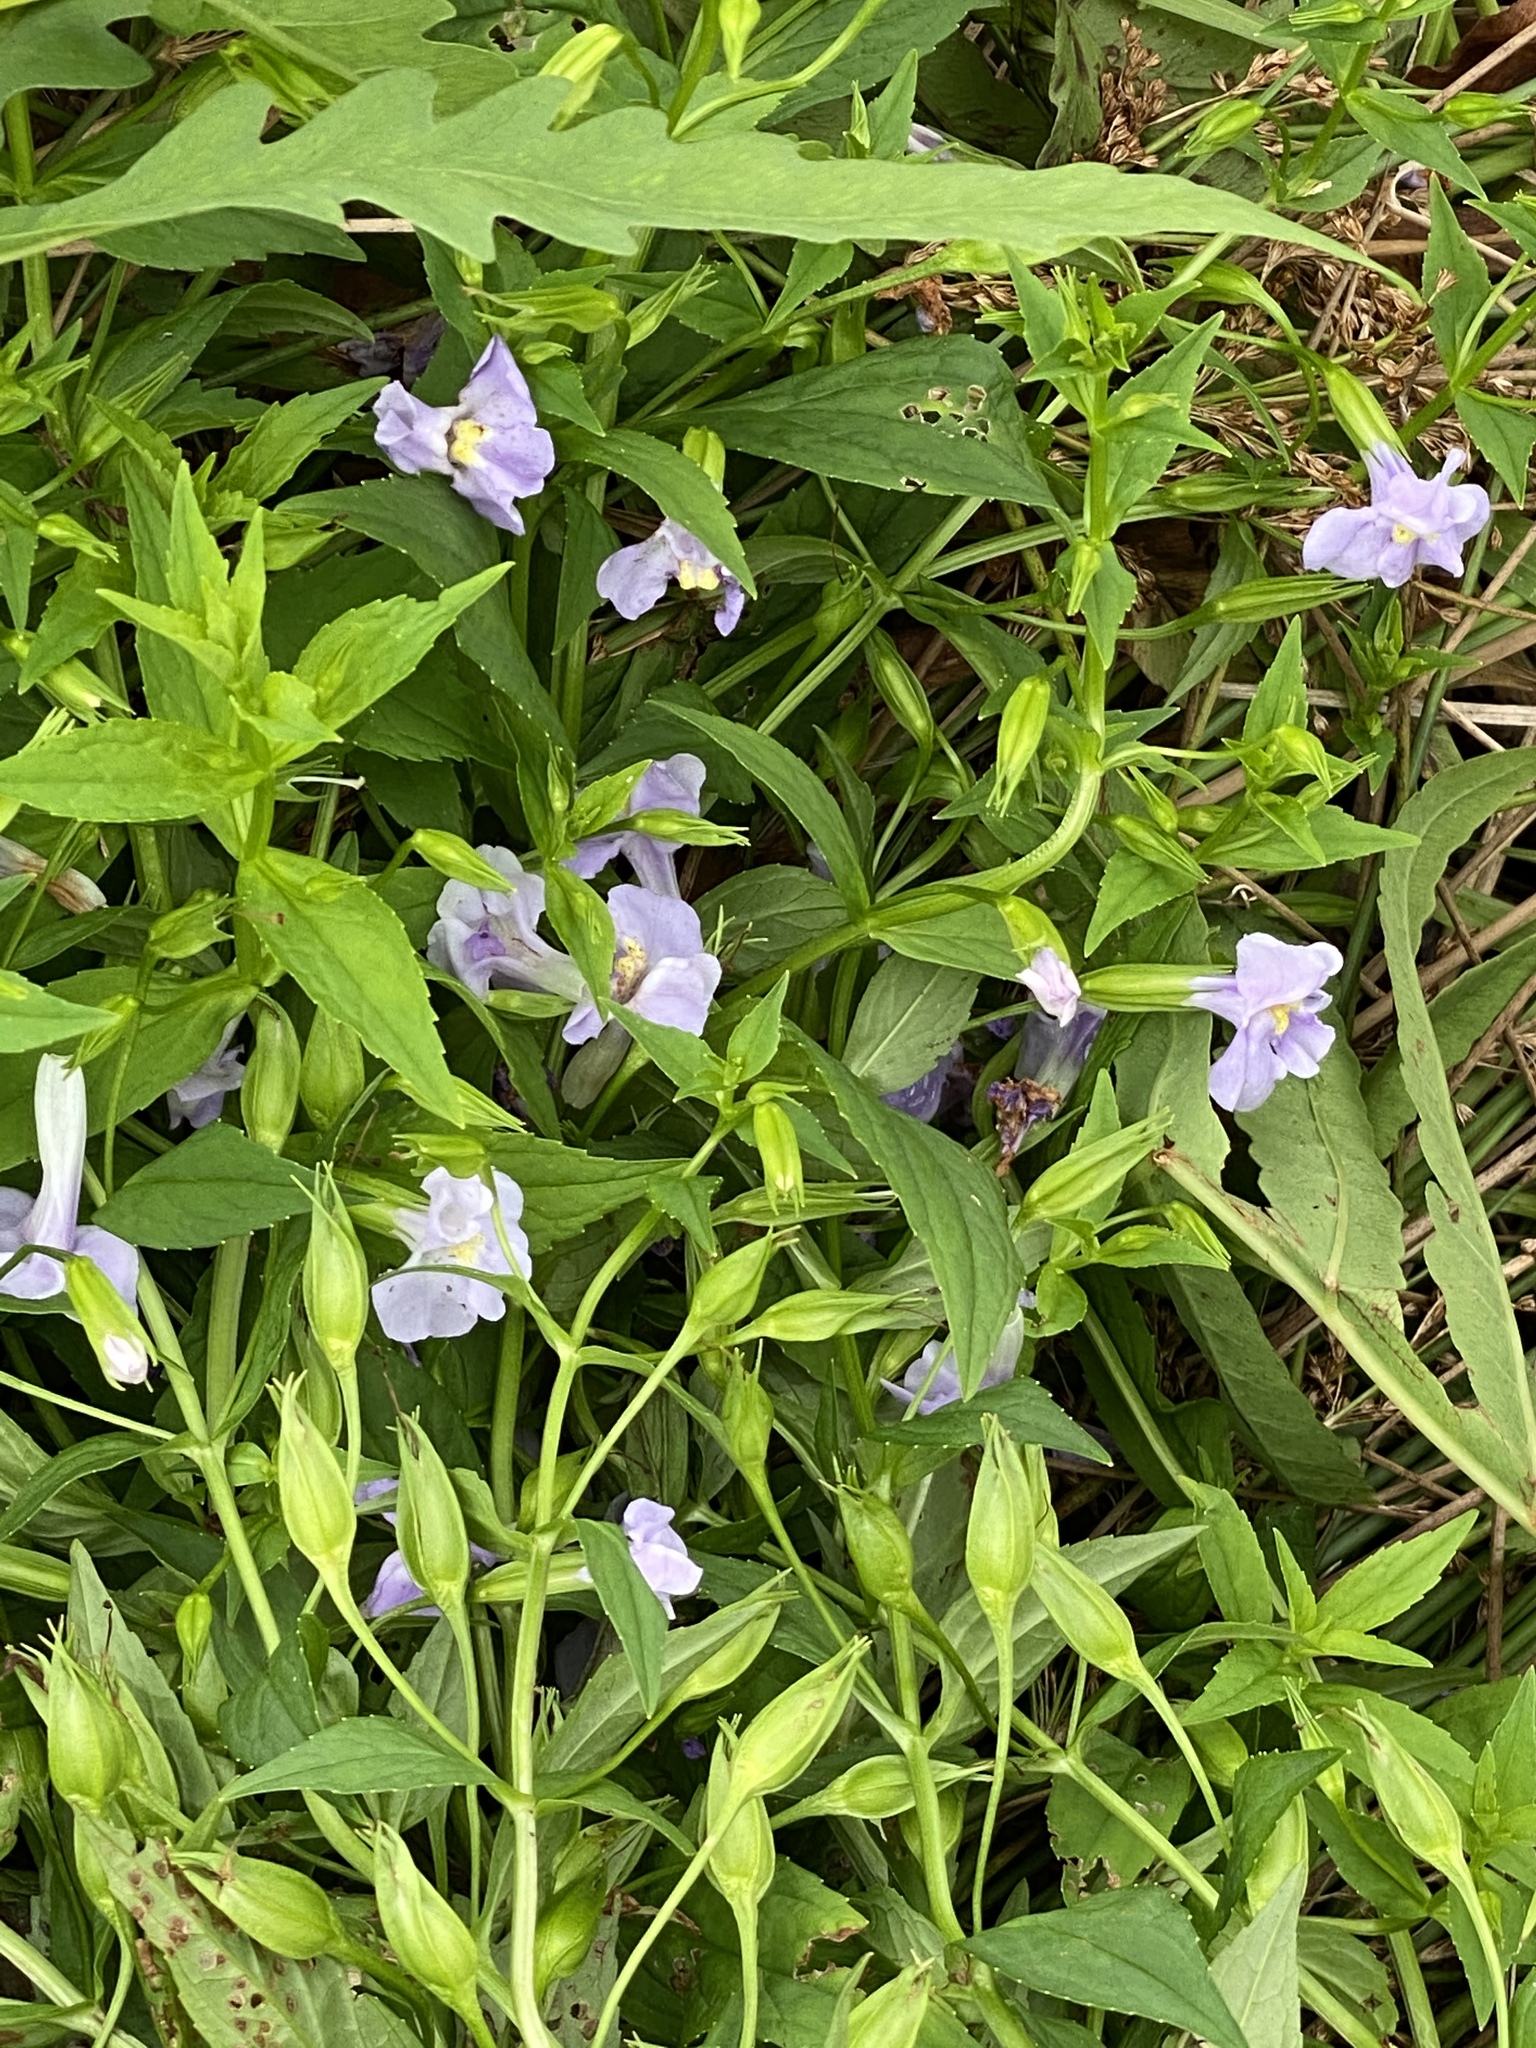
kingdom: Plantae
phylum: Tracheophyta
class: Magnoliopsida
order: Lamiales
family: Phrymaceae
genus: Mimulus
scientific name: Mimulus ringens
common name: Allegheny monkeyflower
